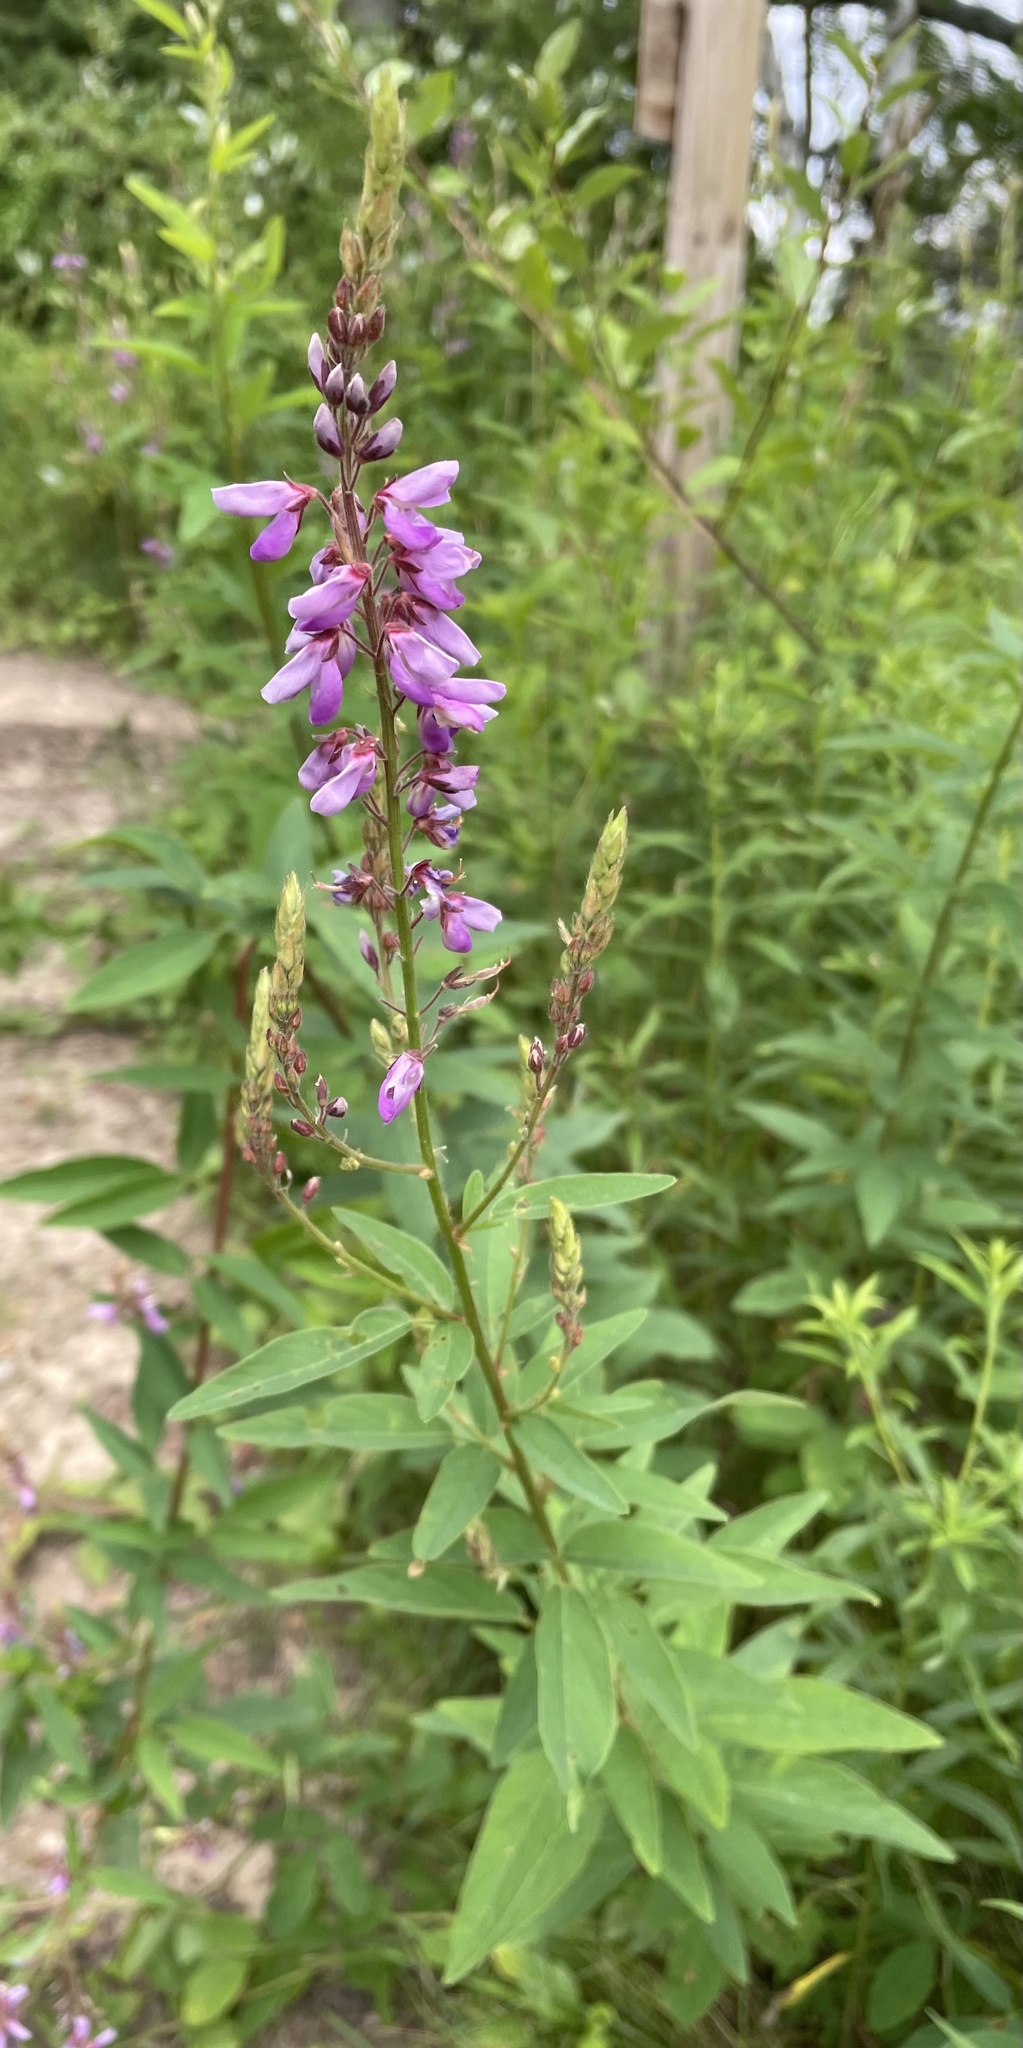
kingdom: Plantae
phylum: Tracheophyta
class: Magnoliopsida
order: Fabales
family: Fabaceae
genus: Desmodium
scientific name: Desmodium canadense
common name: Canada tick-trefoil
